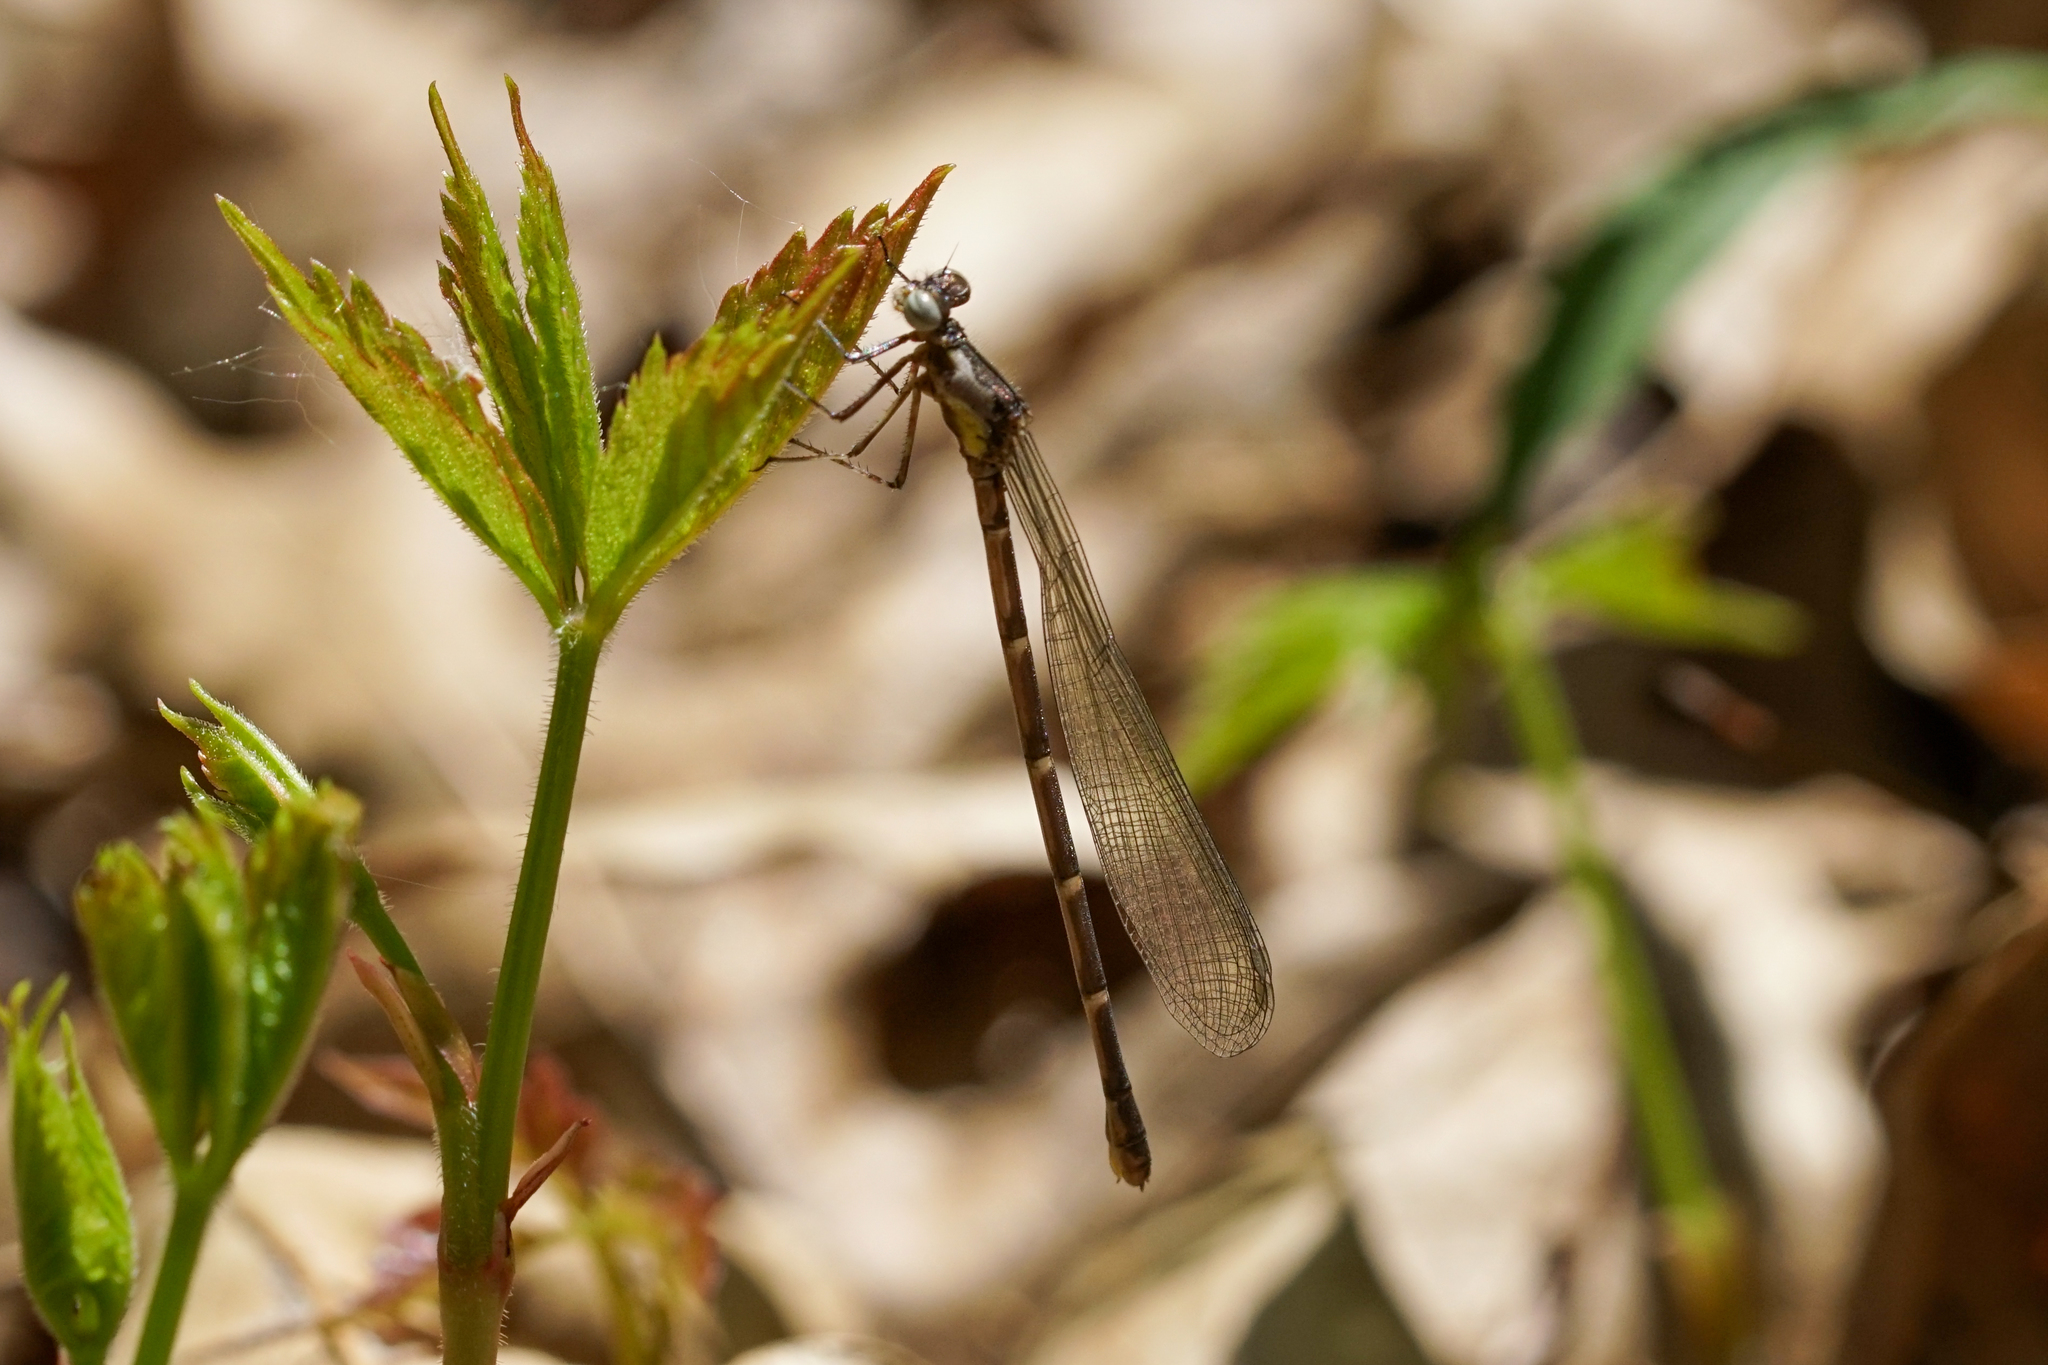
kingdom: Animalia
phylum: Arthropoda
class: Insecta
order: Odonata
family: Coenagrionidae
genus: Chromagrion
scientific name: Chromagrion conditum
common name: Aurora damsel
